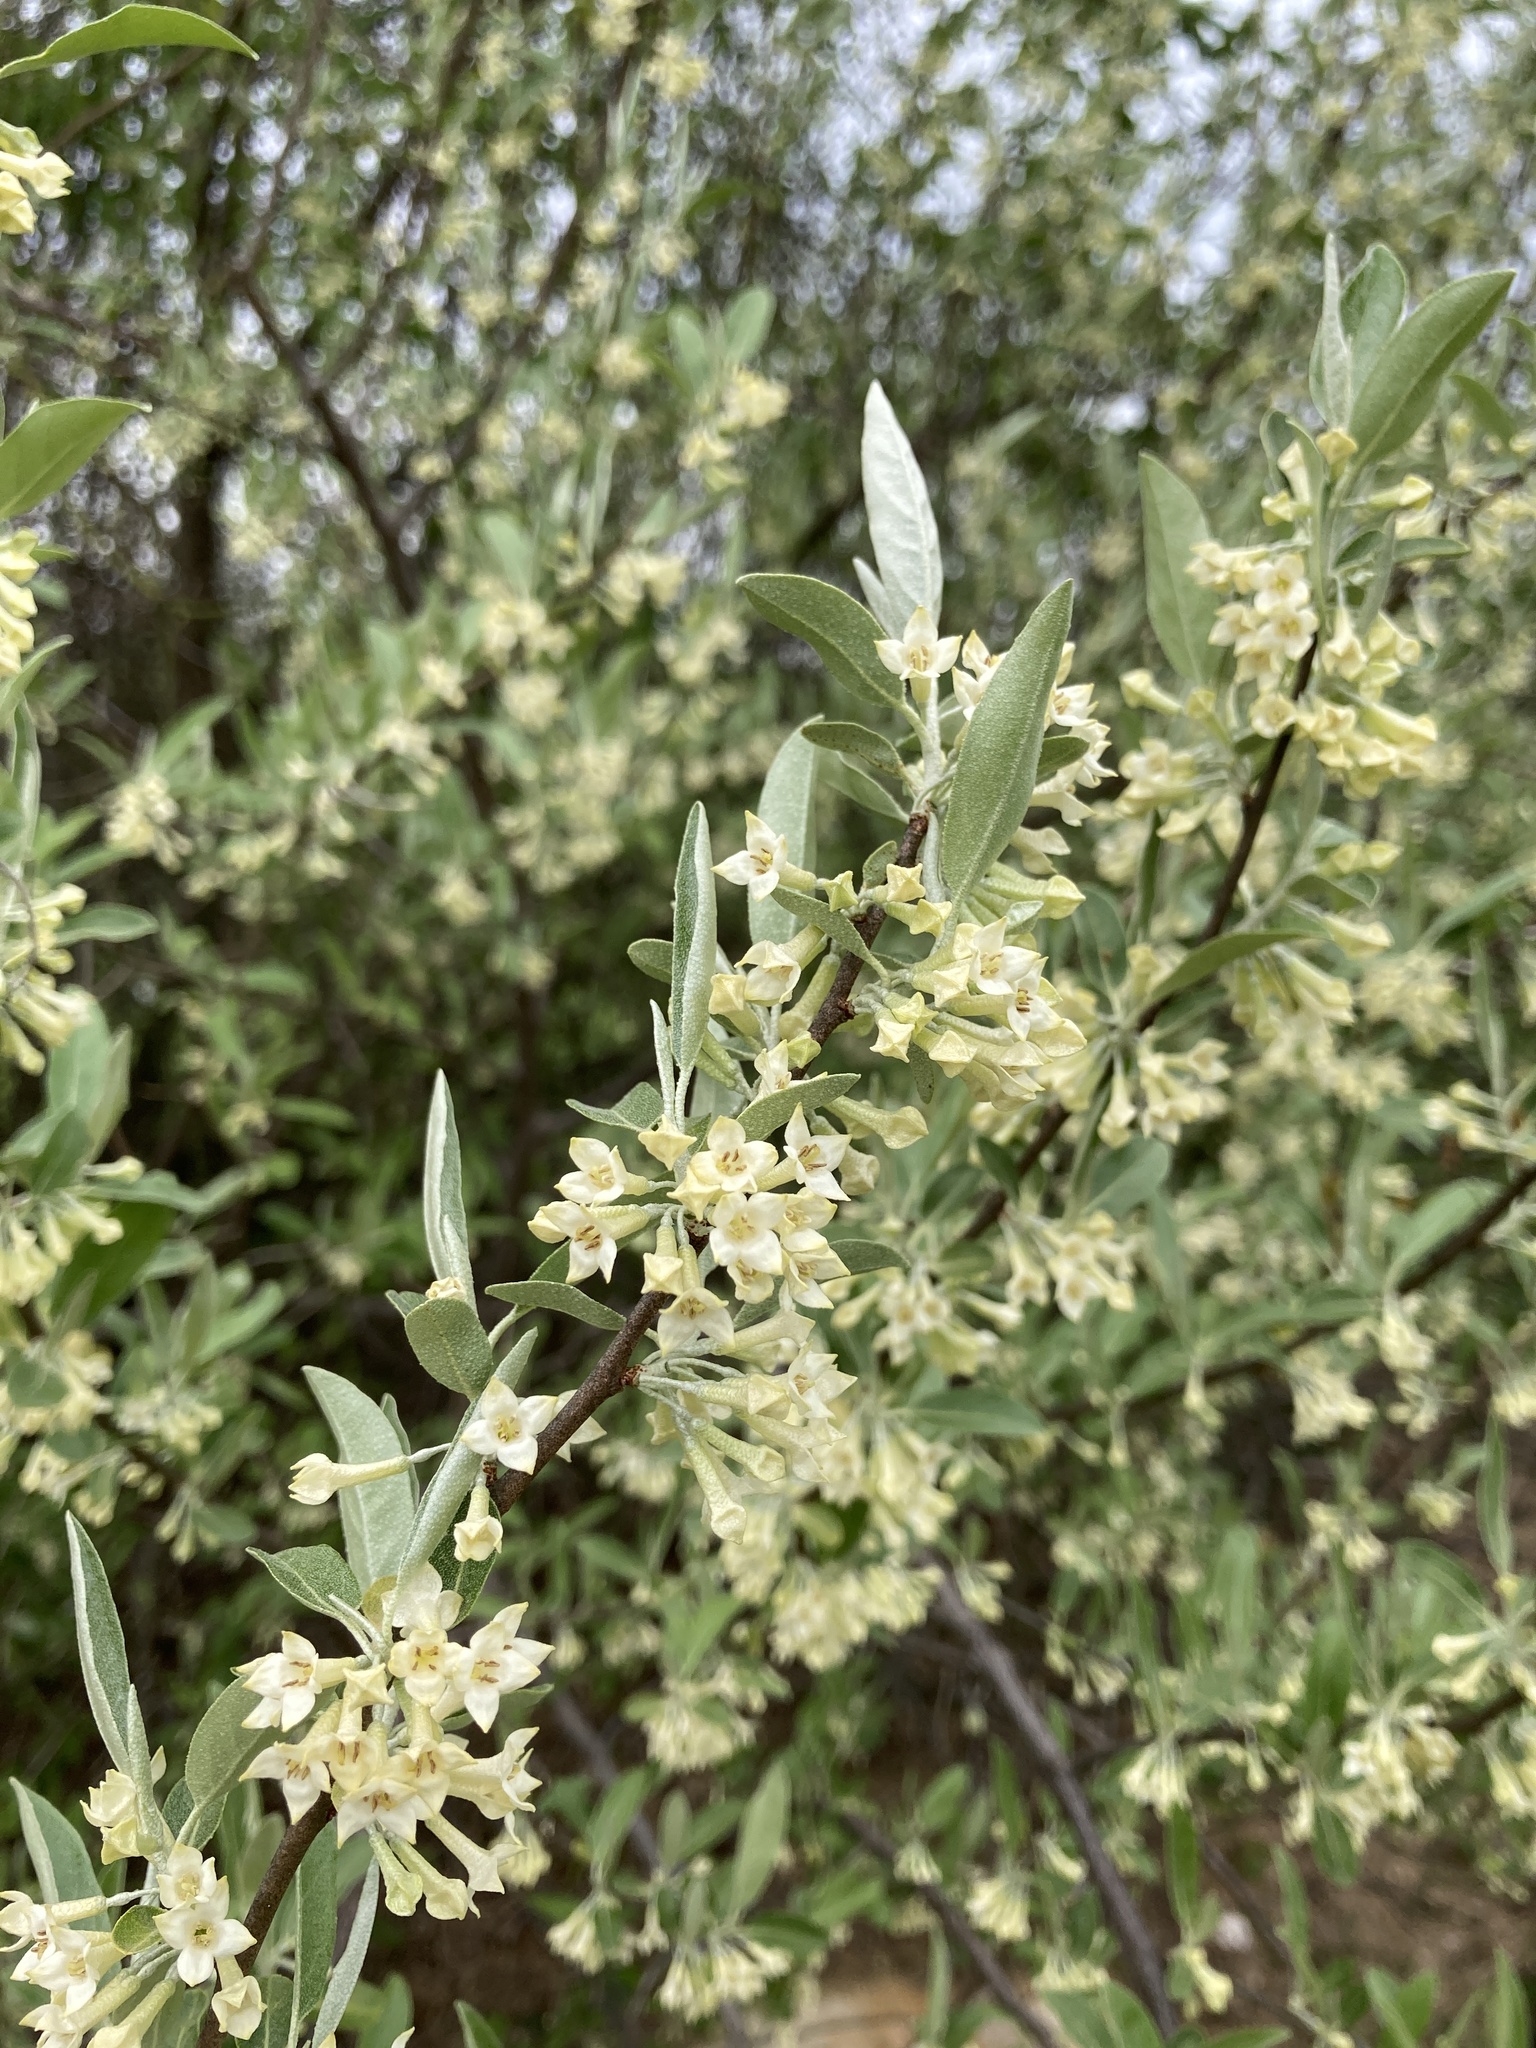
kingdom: Plantae
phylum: Tracheophyta
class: Magnoliopsida
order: Rosales
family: Elaeagnaceae
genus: Elaeagnus
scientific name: Elaeagnus umbellata
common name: Autumn olive
